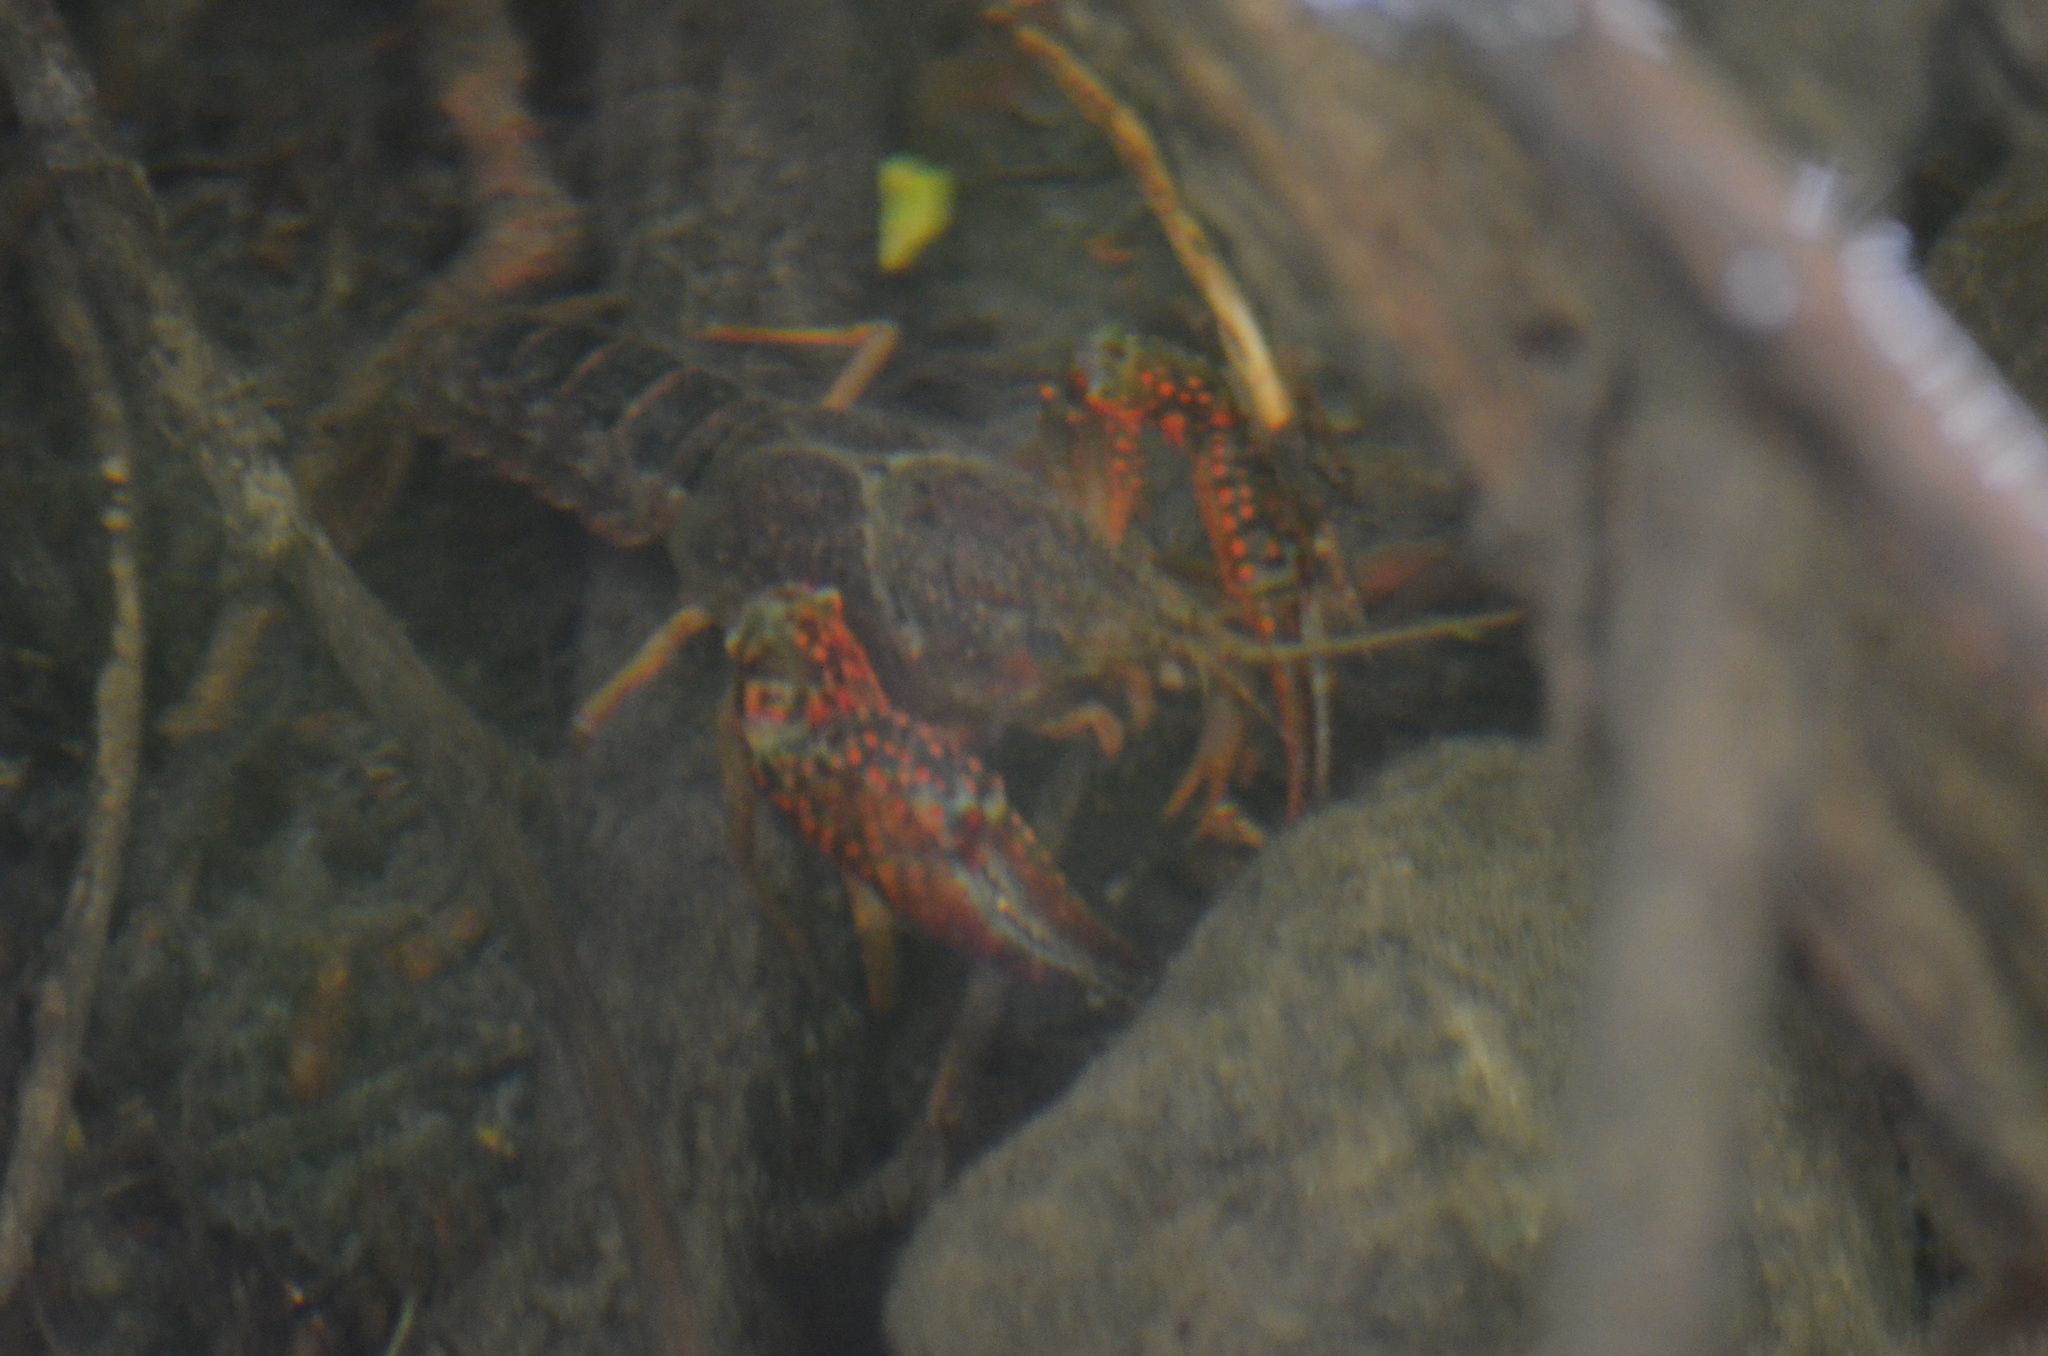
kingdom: Animalia
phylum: Arthropoda
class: Malacostraca
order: Decapoda
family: Cambaridae
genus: Procambarus
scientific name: Procambarus clarkii
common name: Red swamp crayfish
